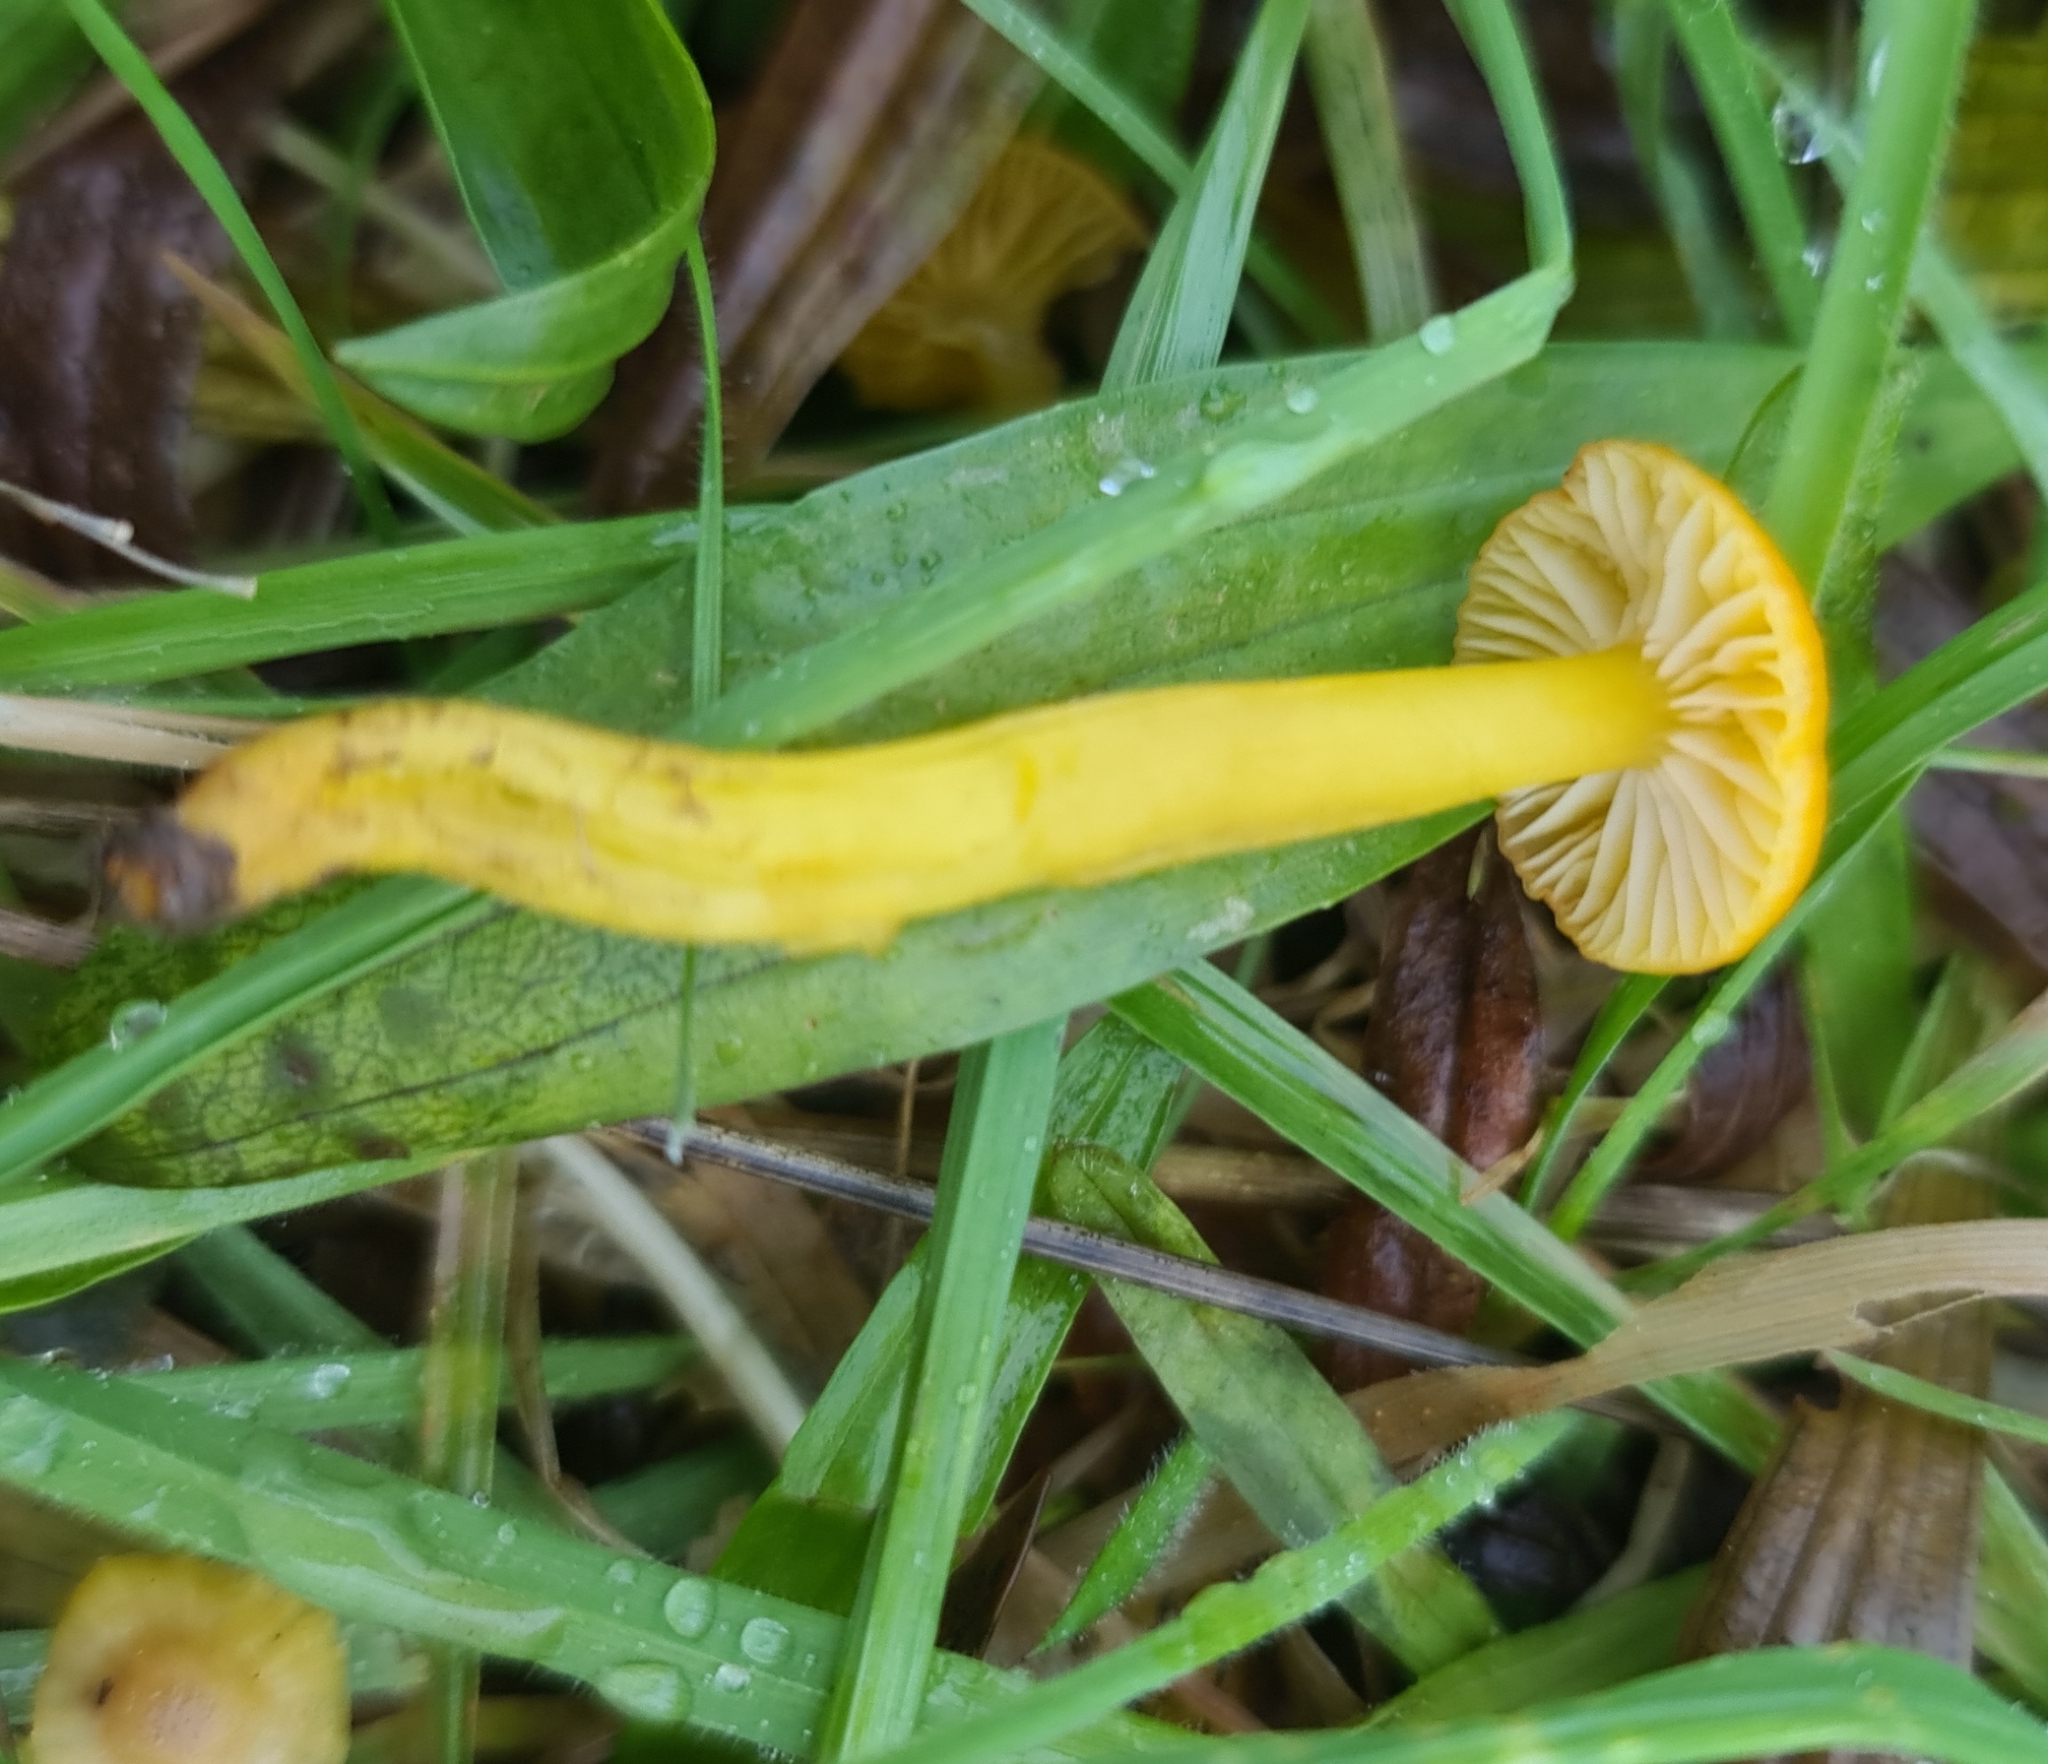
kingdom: Fungi
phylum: Basidiomycota
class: Agaricomycetes
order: Agaricales
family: Hygrophoraceae
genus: Hygrocybe
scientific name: Hygrocybe ceracea
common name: Butter waxcap
